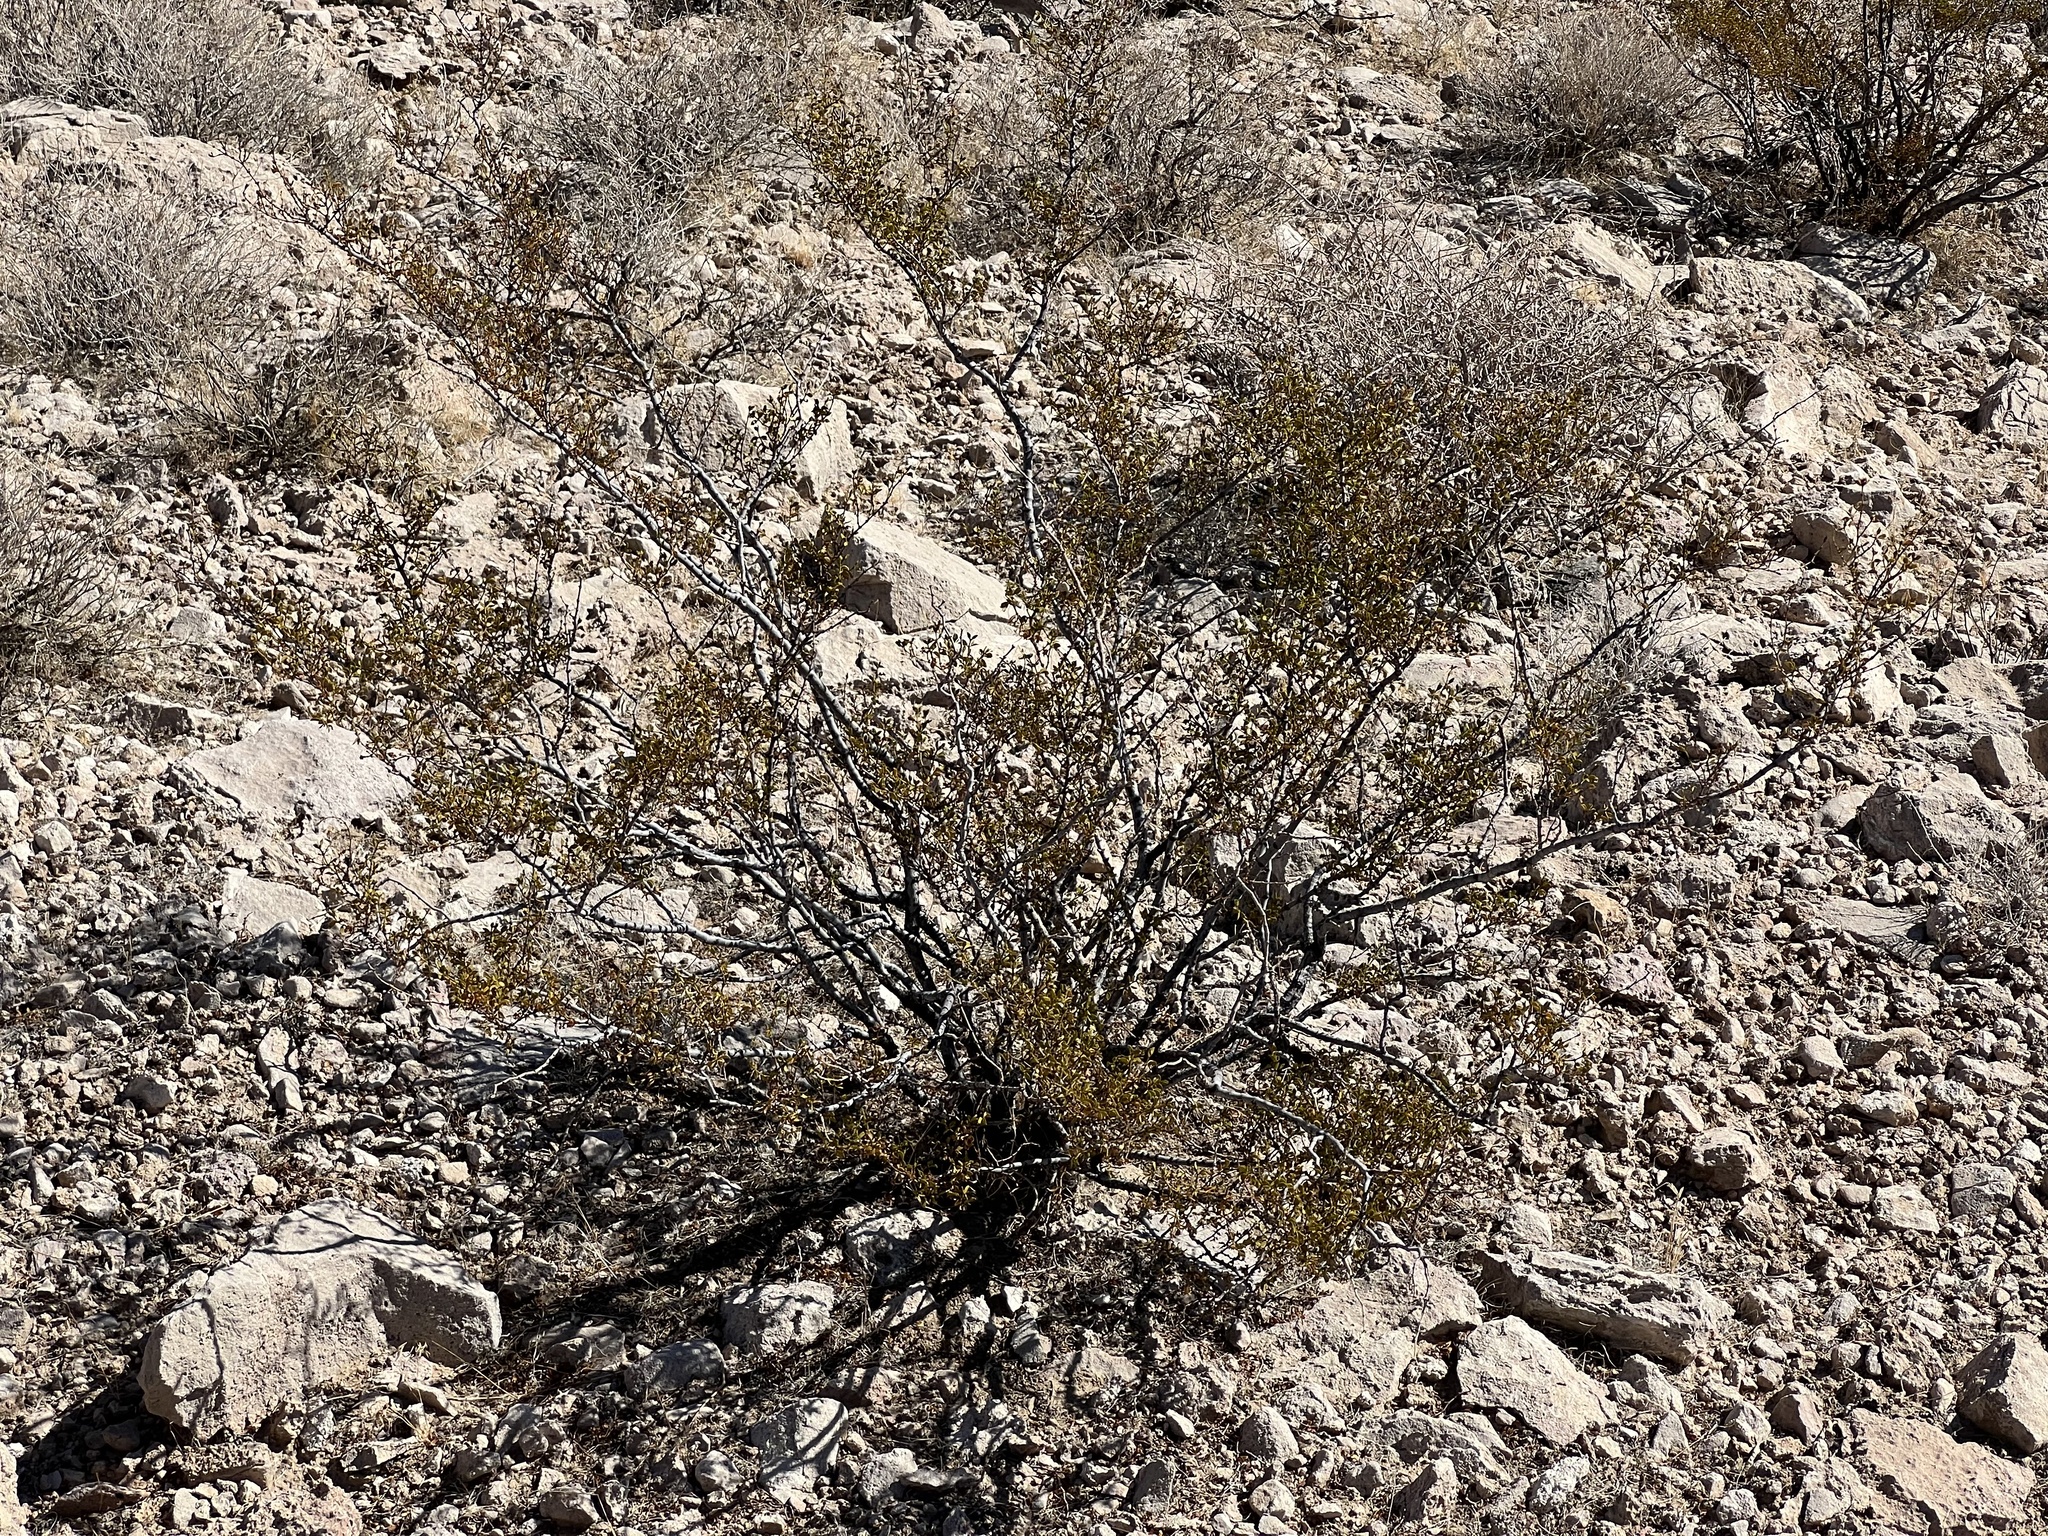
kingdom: Plantae
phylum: Tracheophyta
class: Magnoliopsida
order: Zygophyllales
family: Zygophyllaceae
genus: Larrea
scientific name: Larrea tridentata
